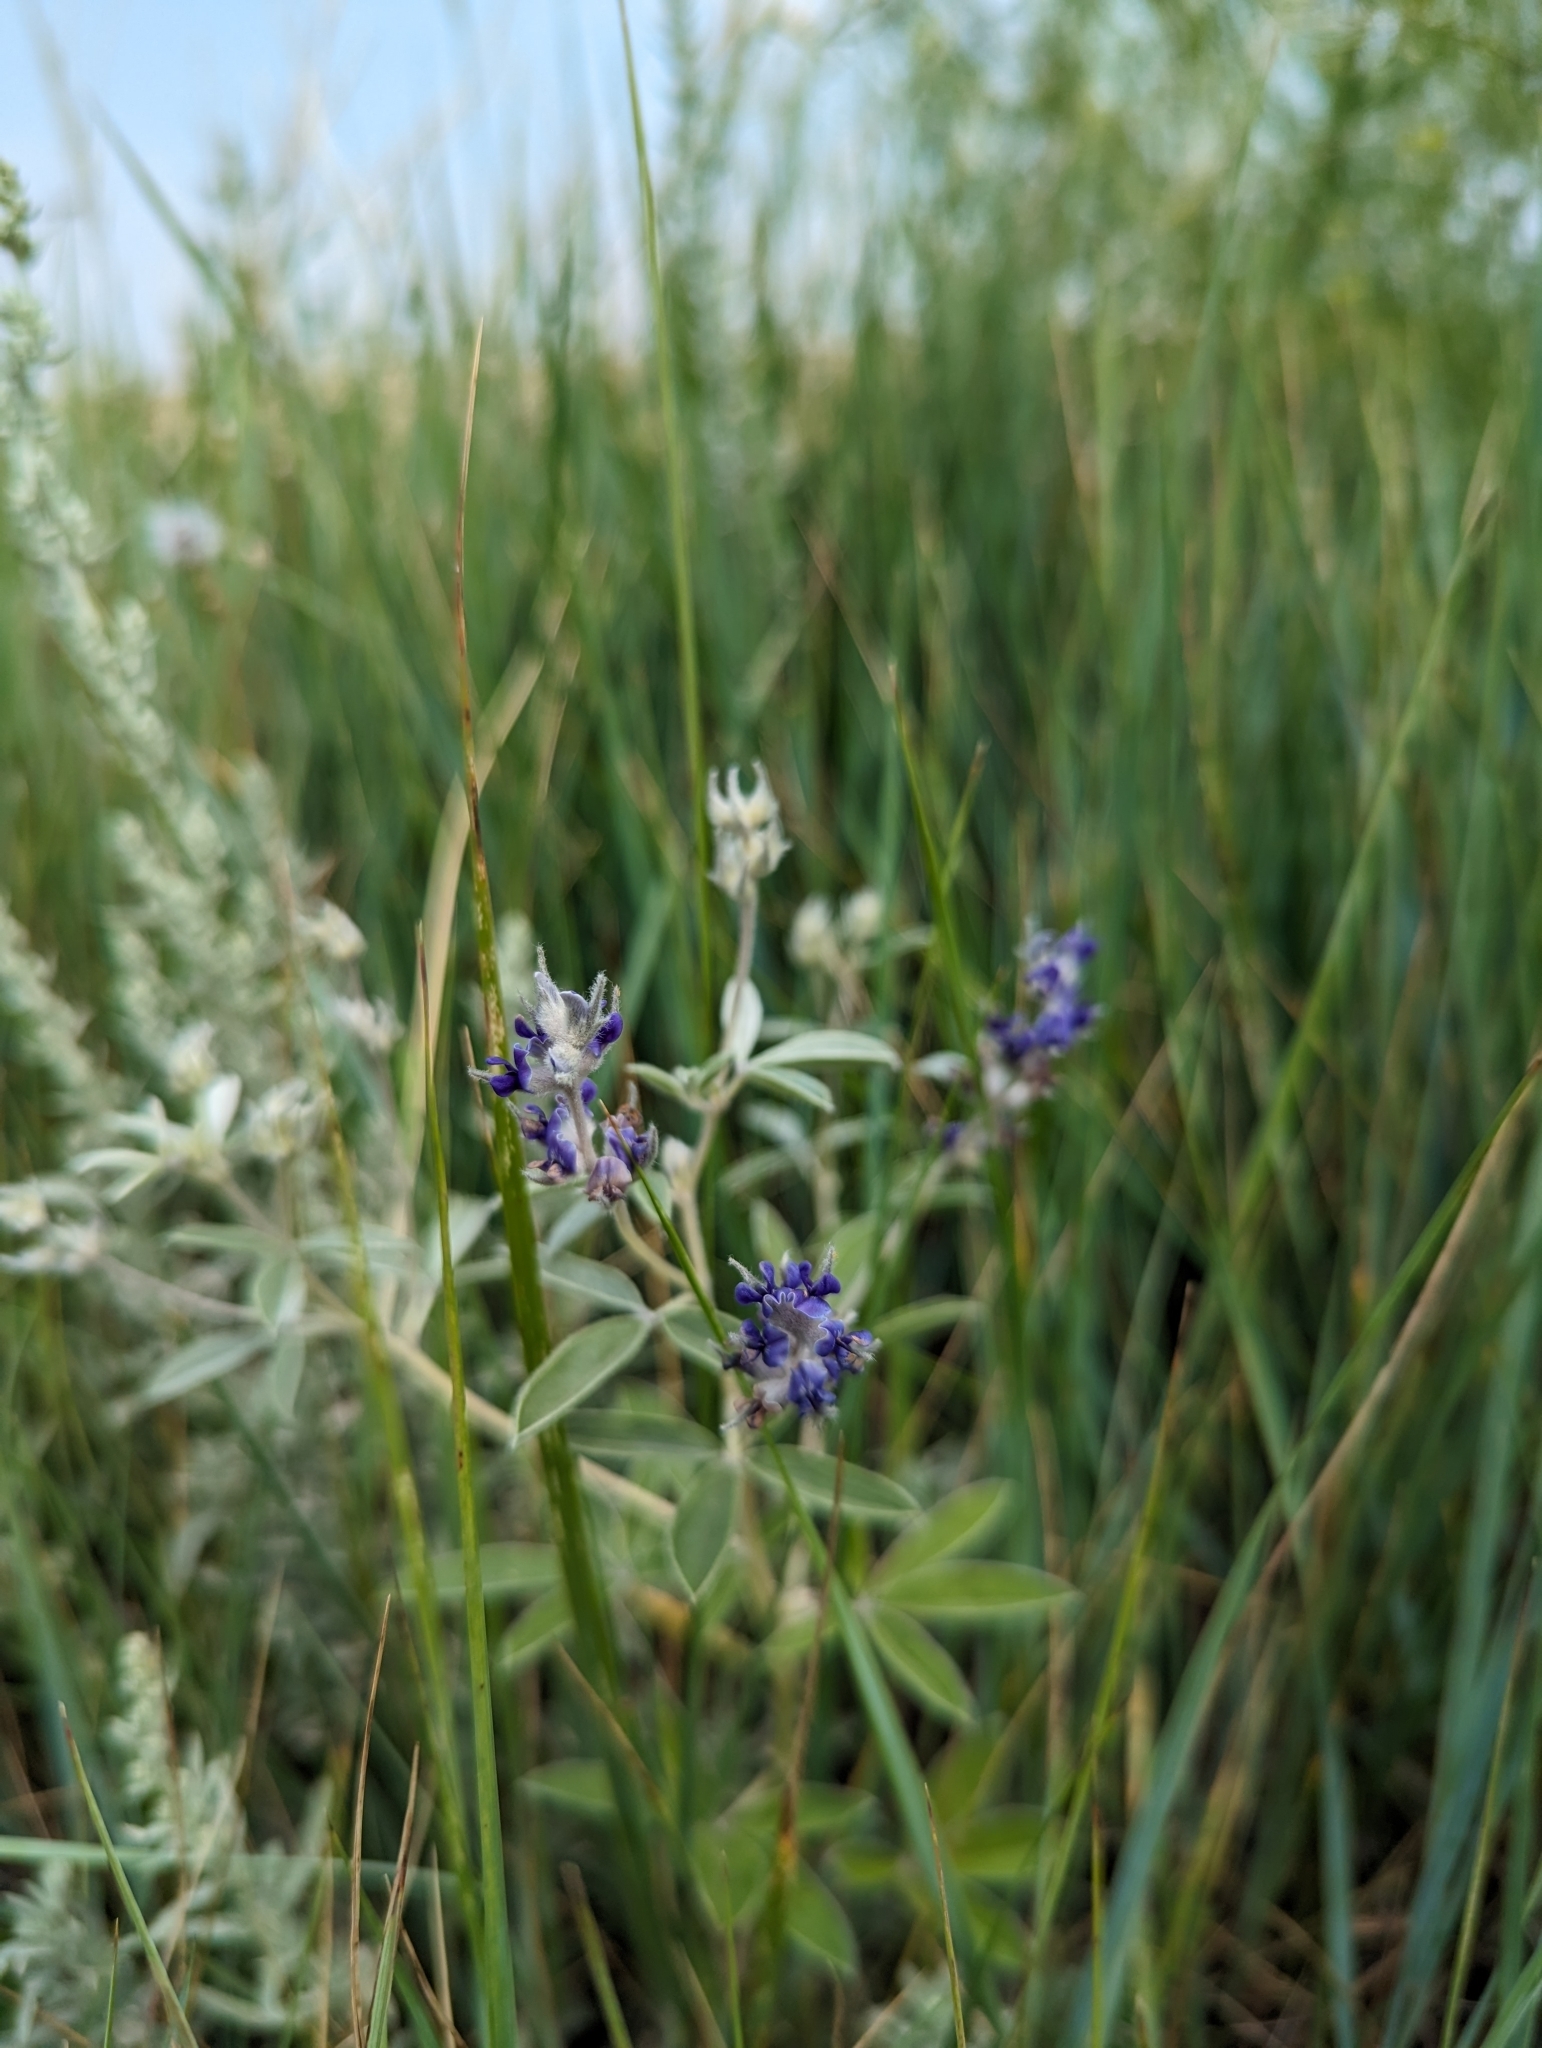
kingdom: Plantae
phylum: Tracheophyta
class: Magnoliopsida
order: Fabales
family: Fabaceae
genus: Pediomelum
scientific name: Pediomelum argophyllum
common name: Silver-leaved indian breadroot
